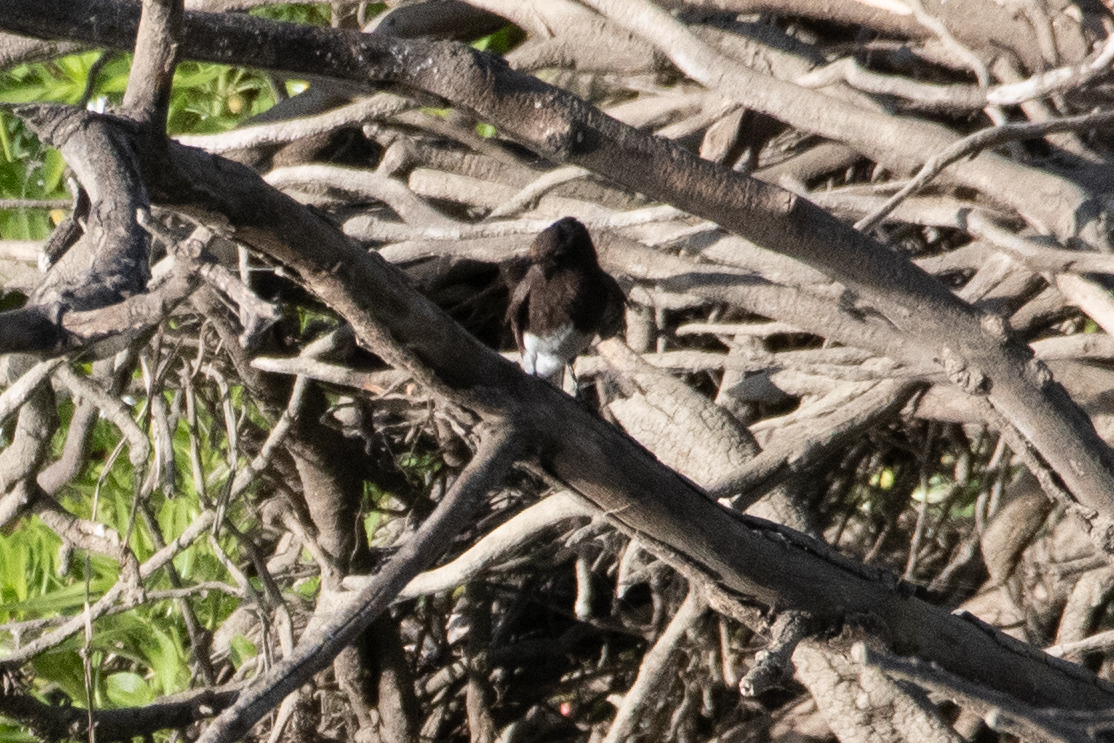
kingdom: Animalia
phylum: Chordata
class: Aves
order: Passeriformes
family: Tyrannidae
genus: Sayornis
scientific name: Sayornis nigricans
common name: Black phoebe
